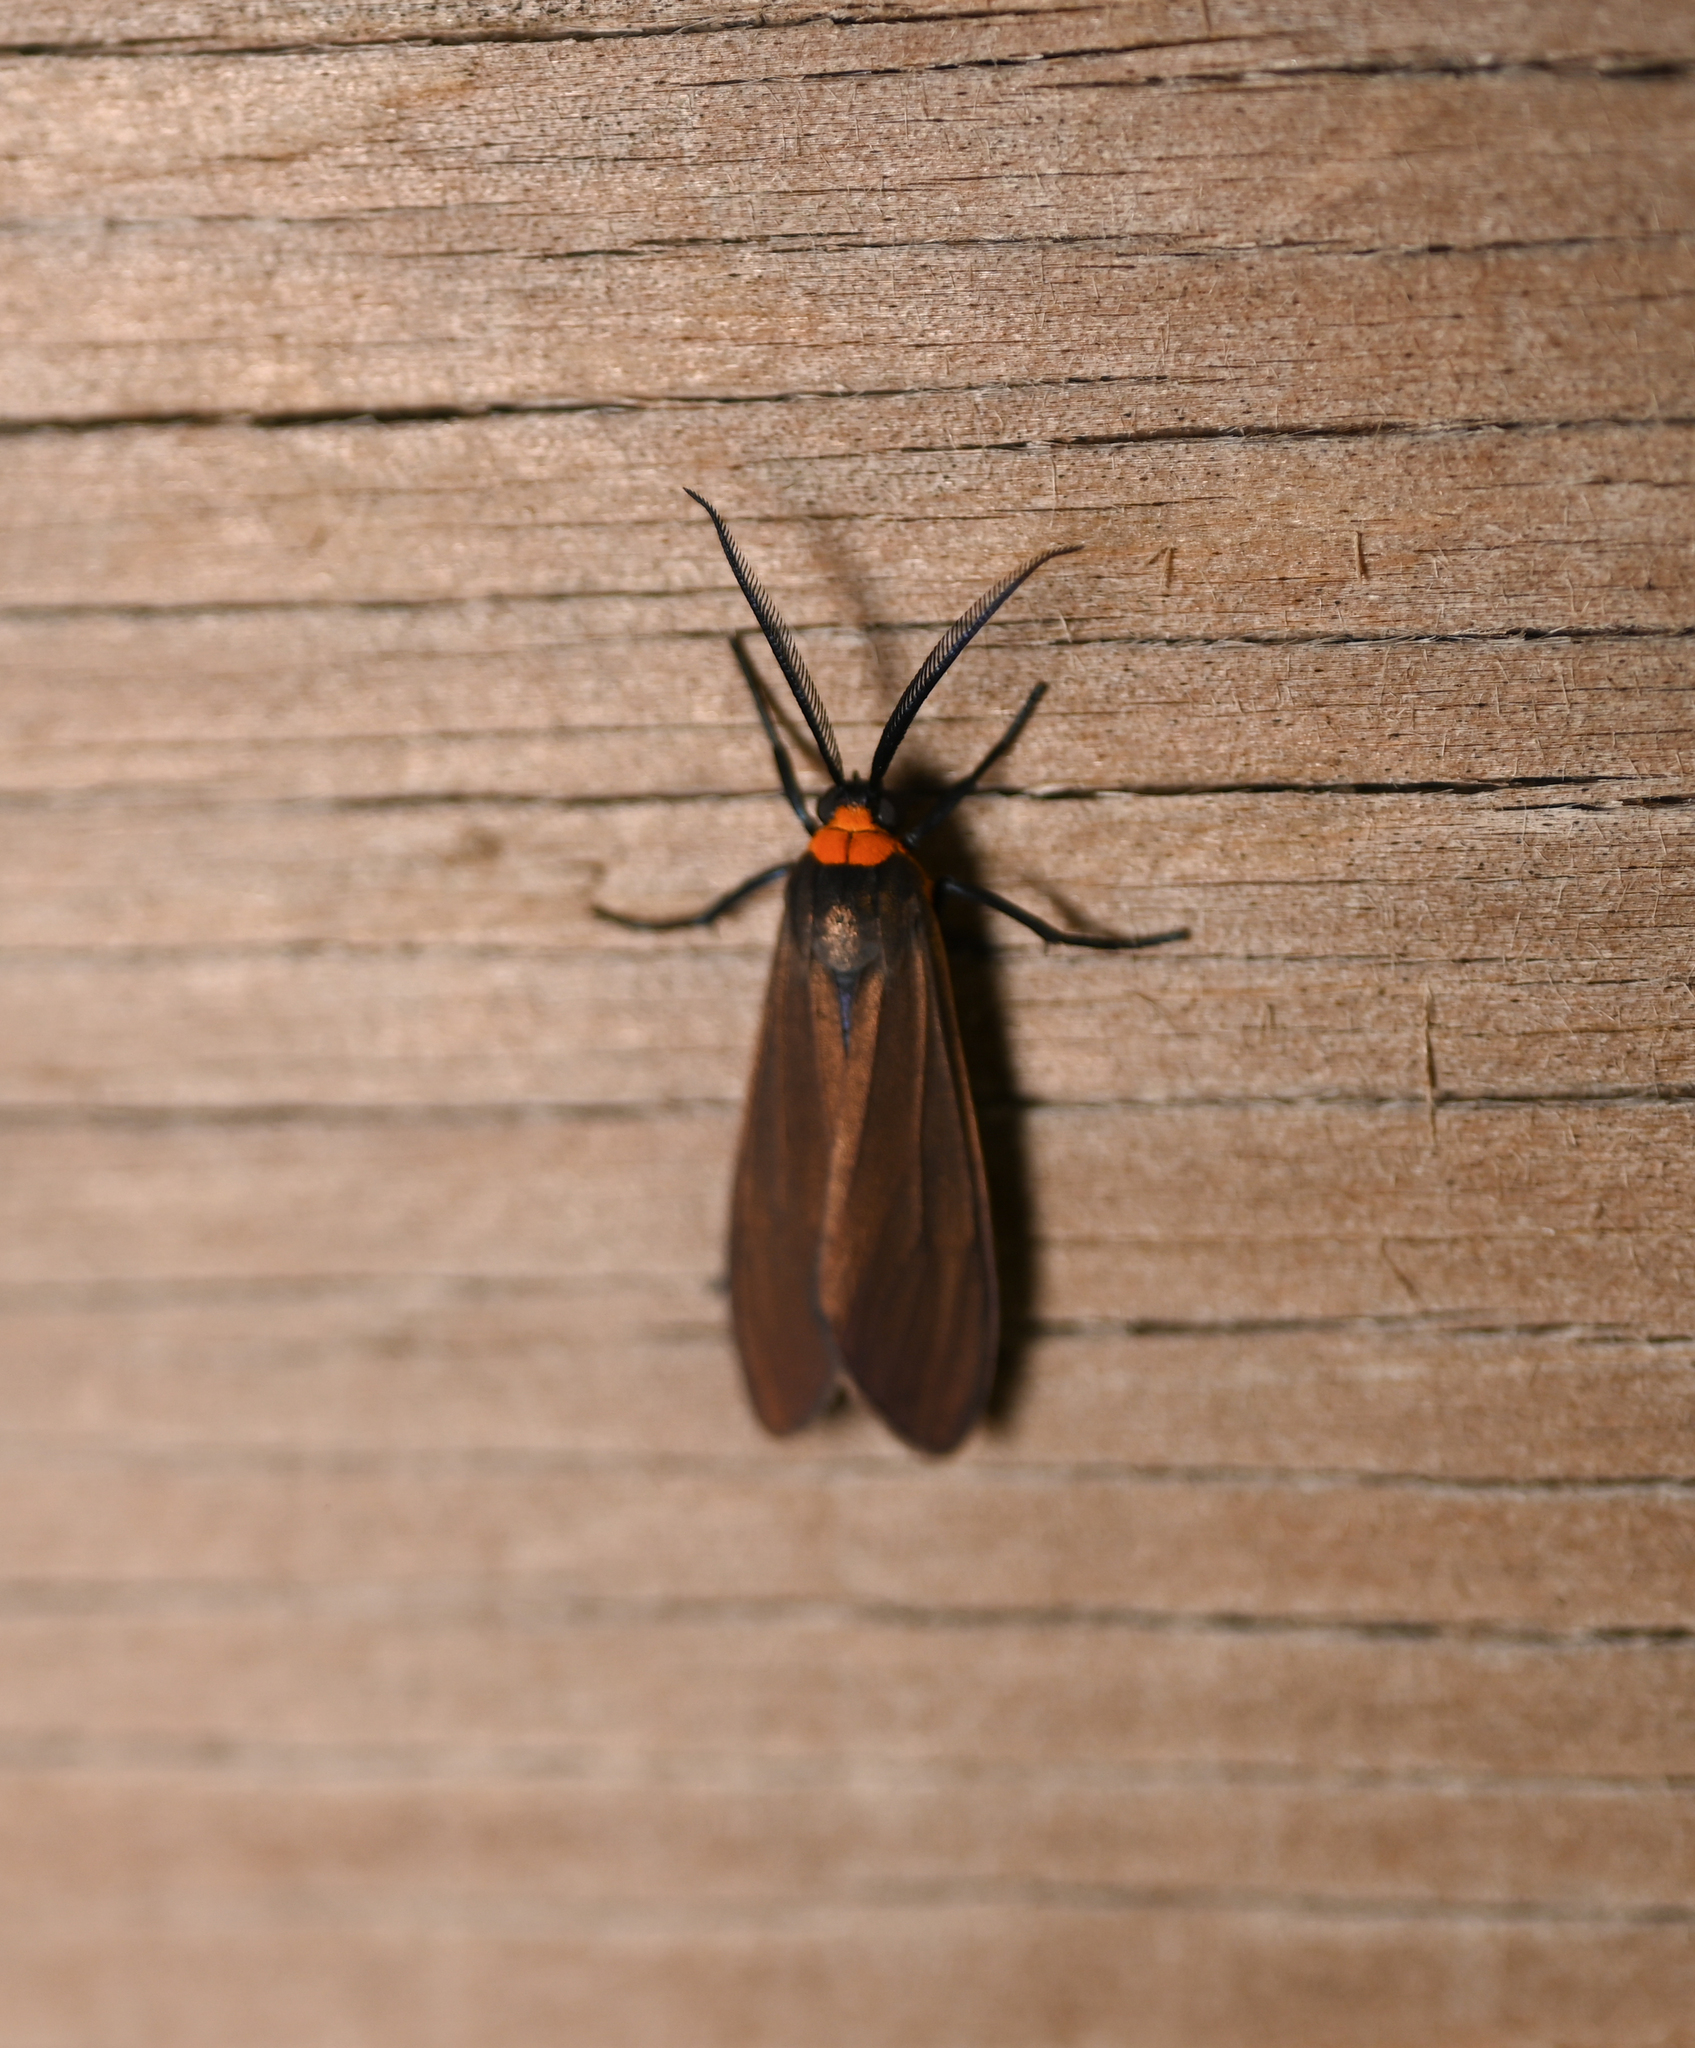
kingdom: Animalia
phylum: Arthropoda
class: Insecta
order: Lepidoptera
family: Erebidae
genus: Cisseps
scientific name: Cisseps fulvicollis
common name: Yellow-collared scape moth
